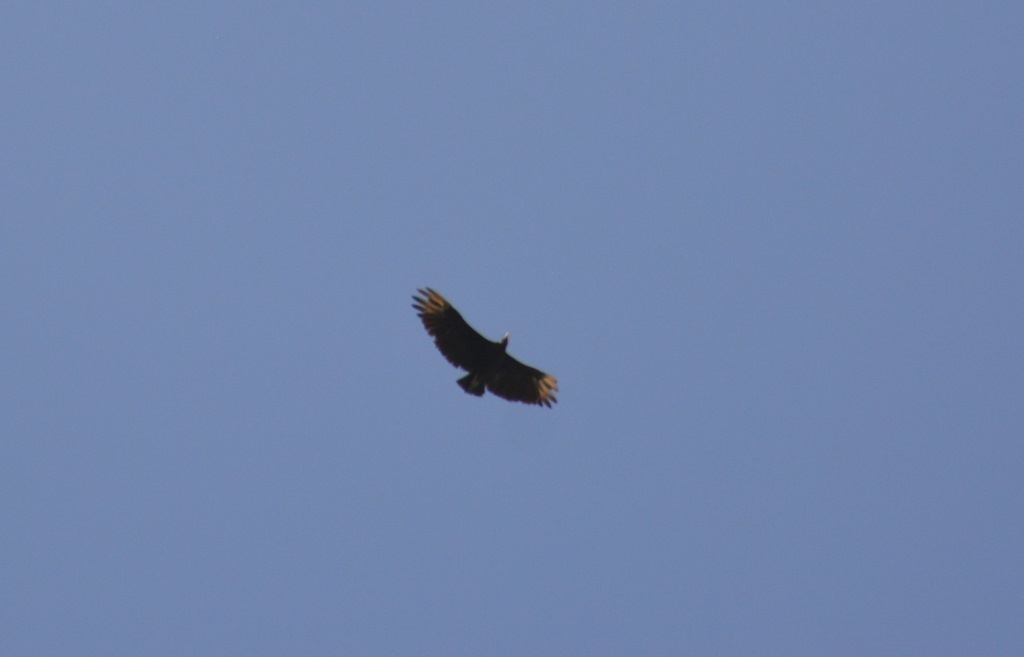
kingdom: Animalia
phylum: Chordata
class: Aves
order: Accipitriformes
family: Cathartidae
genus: Coragyps
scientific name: Coragyps atratus
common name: Black vulture
